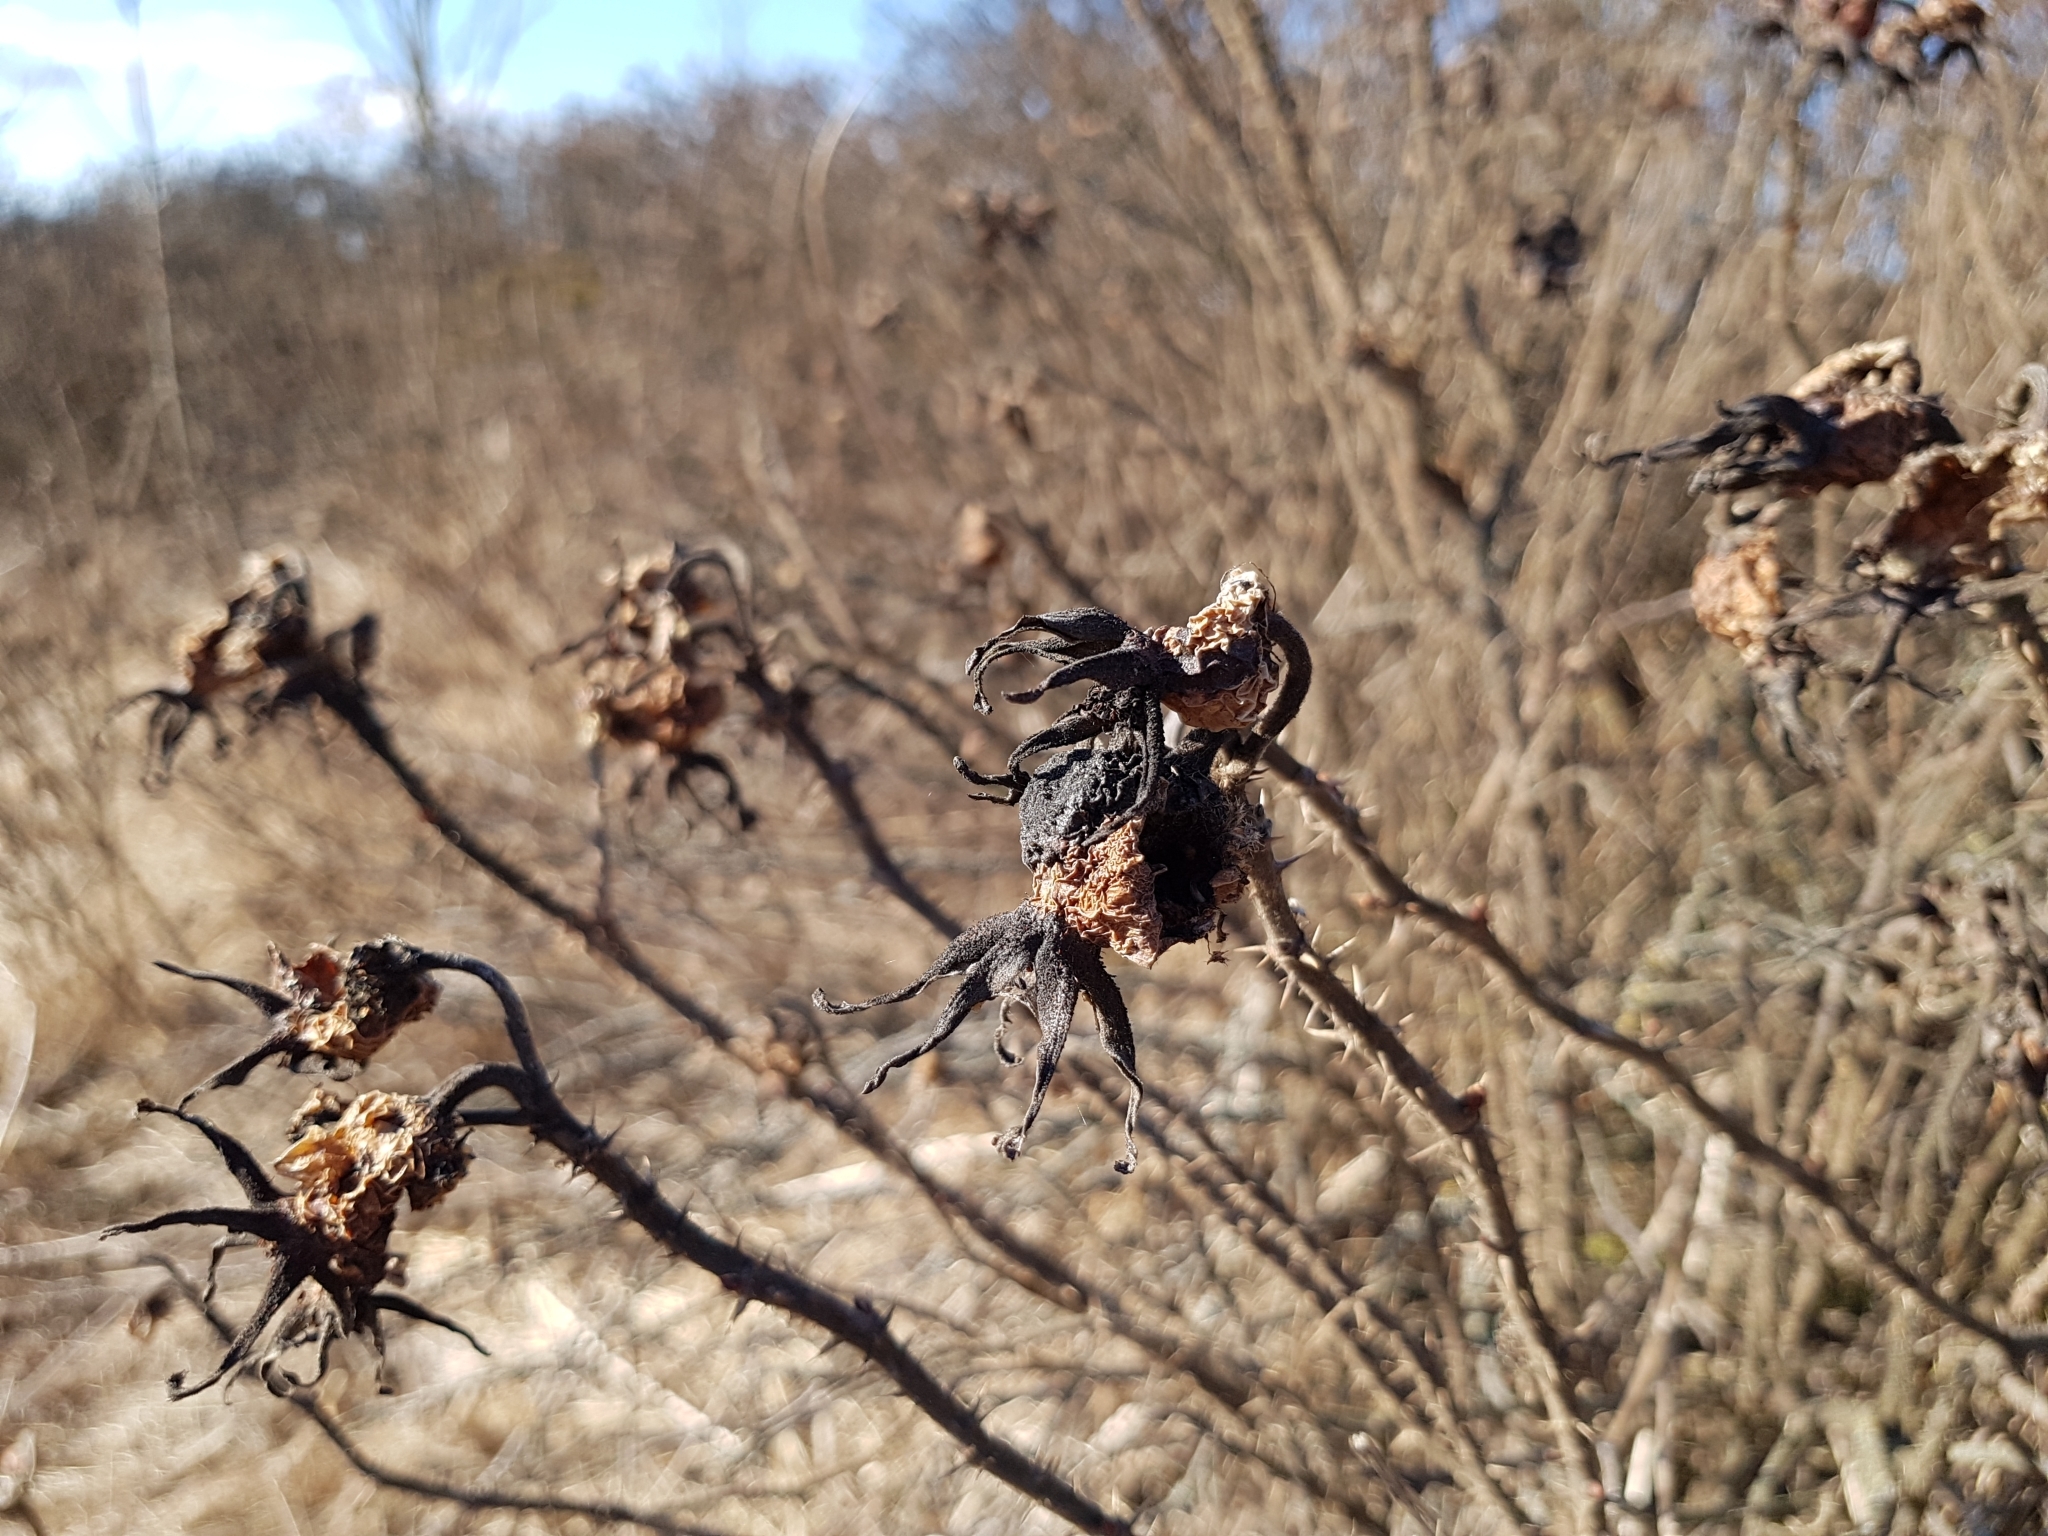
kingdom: Plantae
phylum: Tracheophyta
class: Magnoliopsida
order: Rosales
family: Rosaceae
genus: Rosa
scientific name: Rosa
